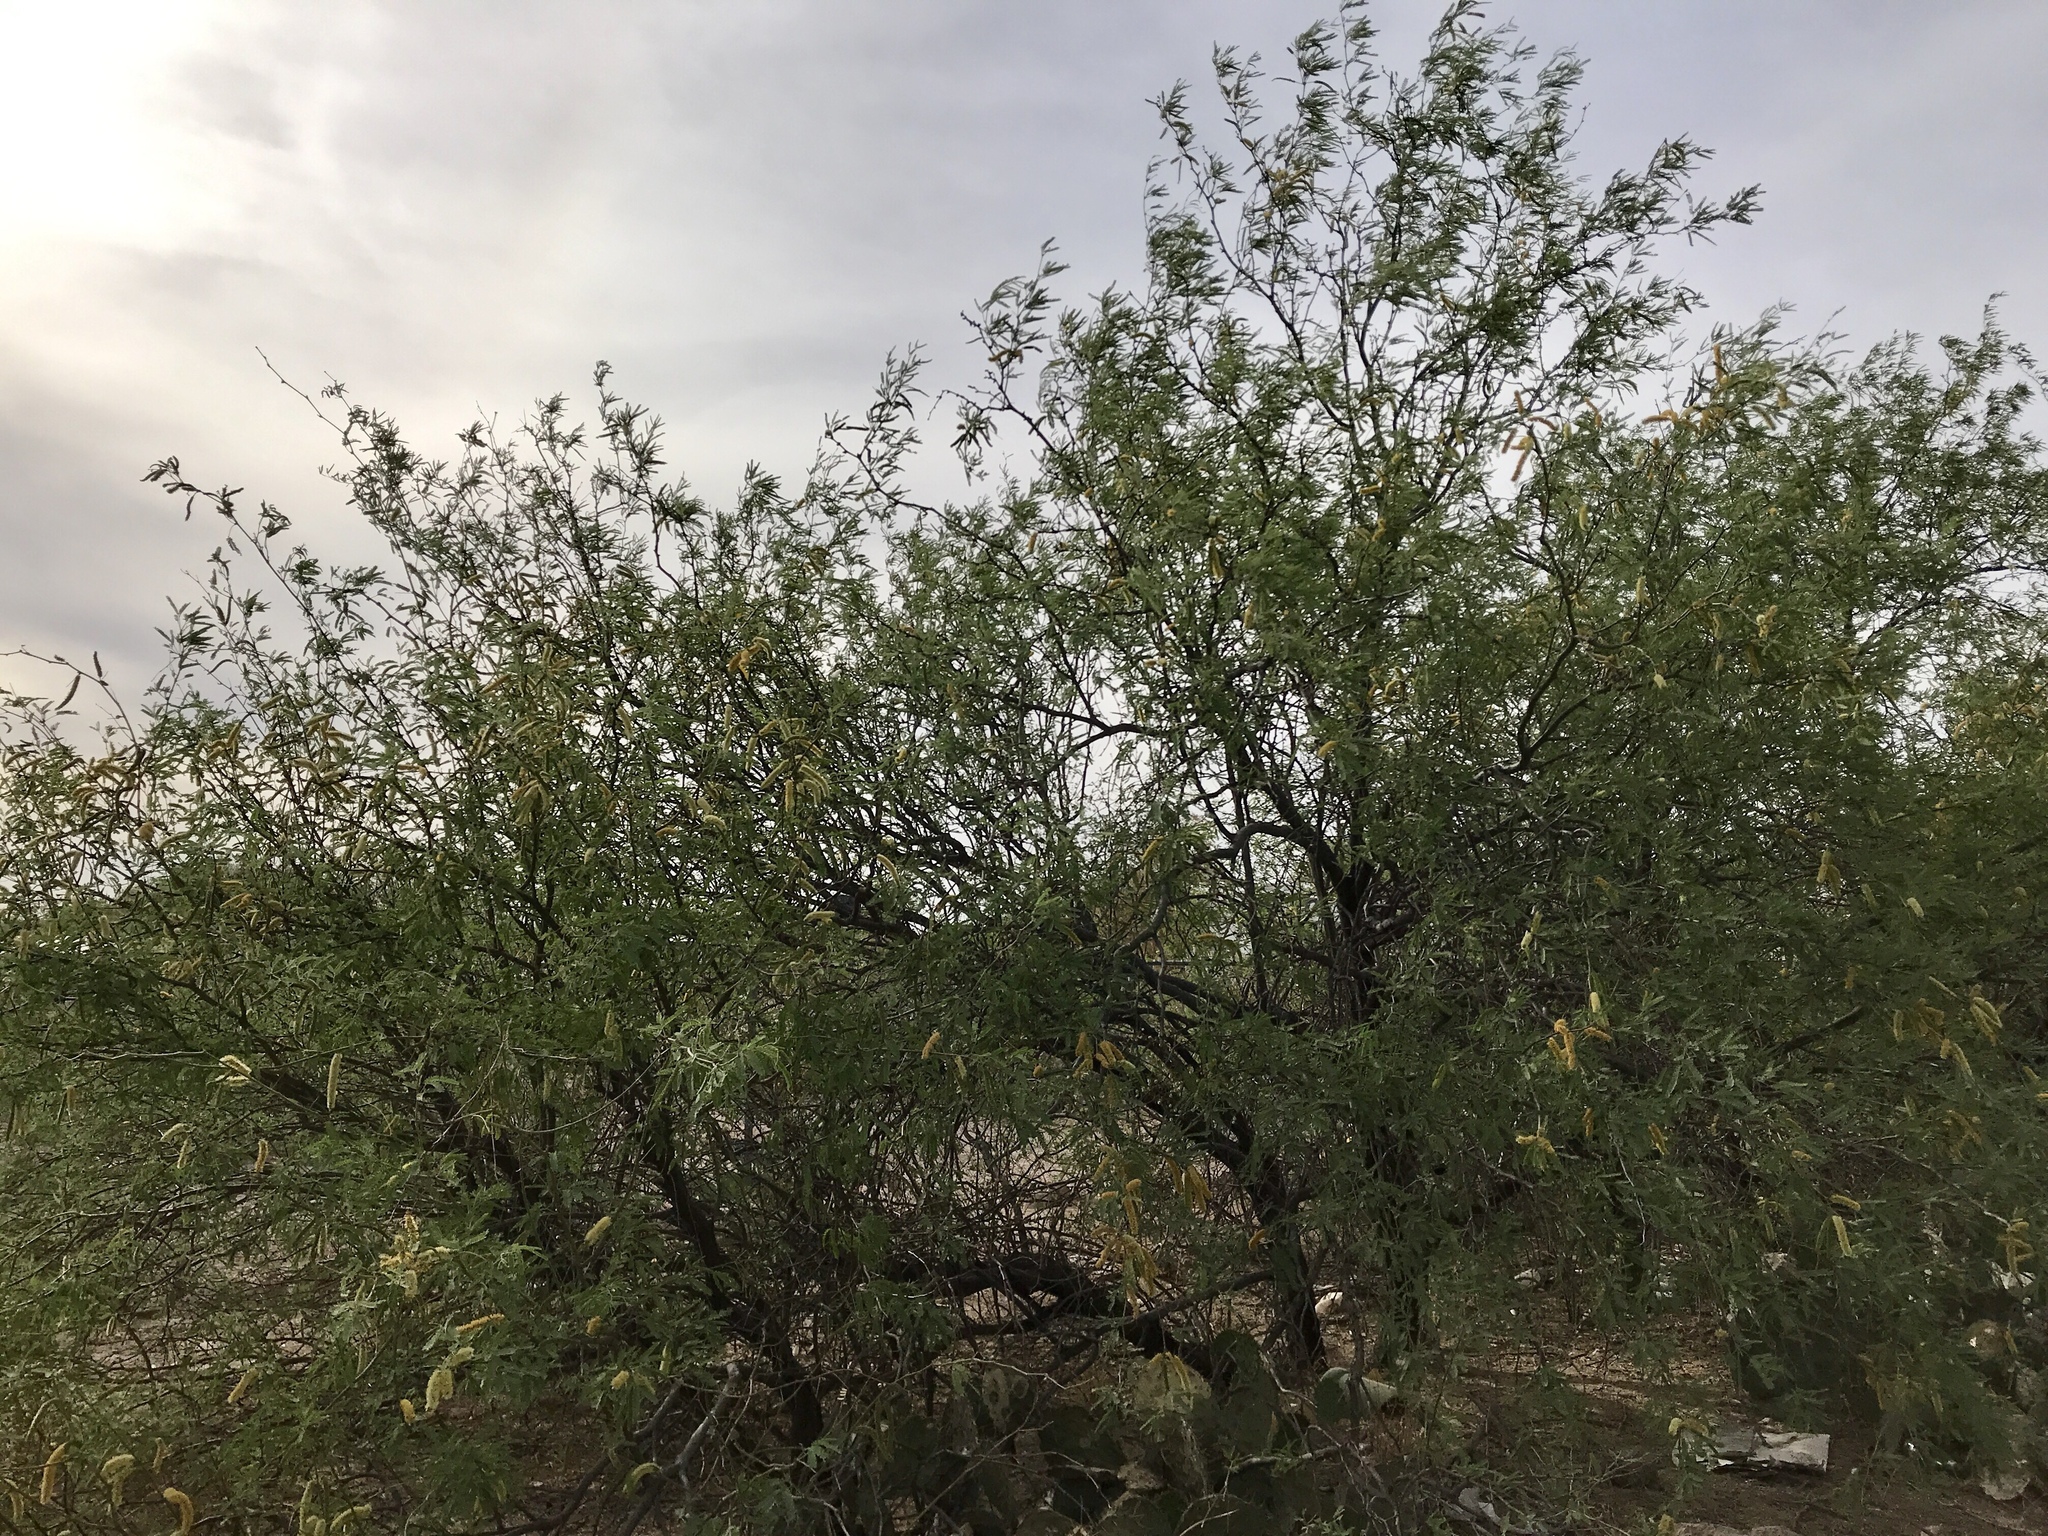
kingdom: Plantae
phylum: Tracheophyta
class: Magnoliopsida
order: Fabales
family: Fabaceae
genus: Prosopis
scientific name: Prosopis velutina
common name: Velvet mesquite
